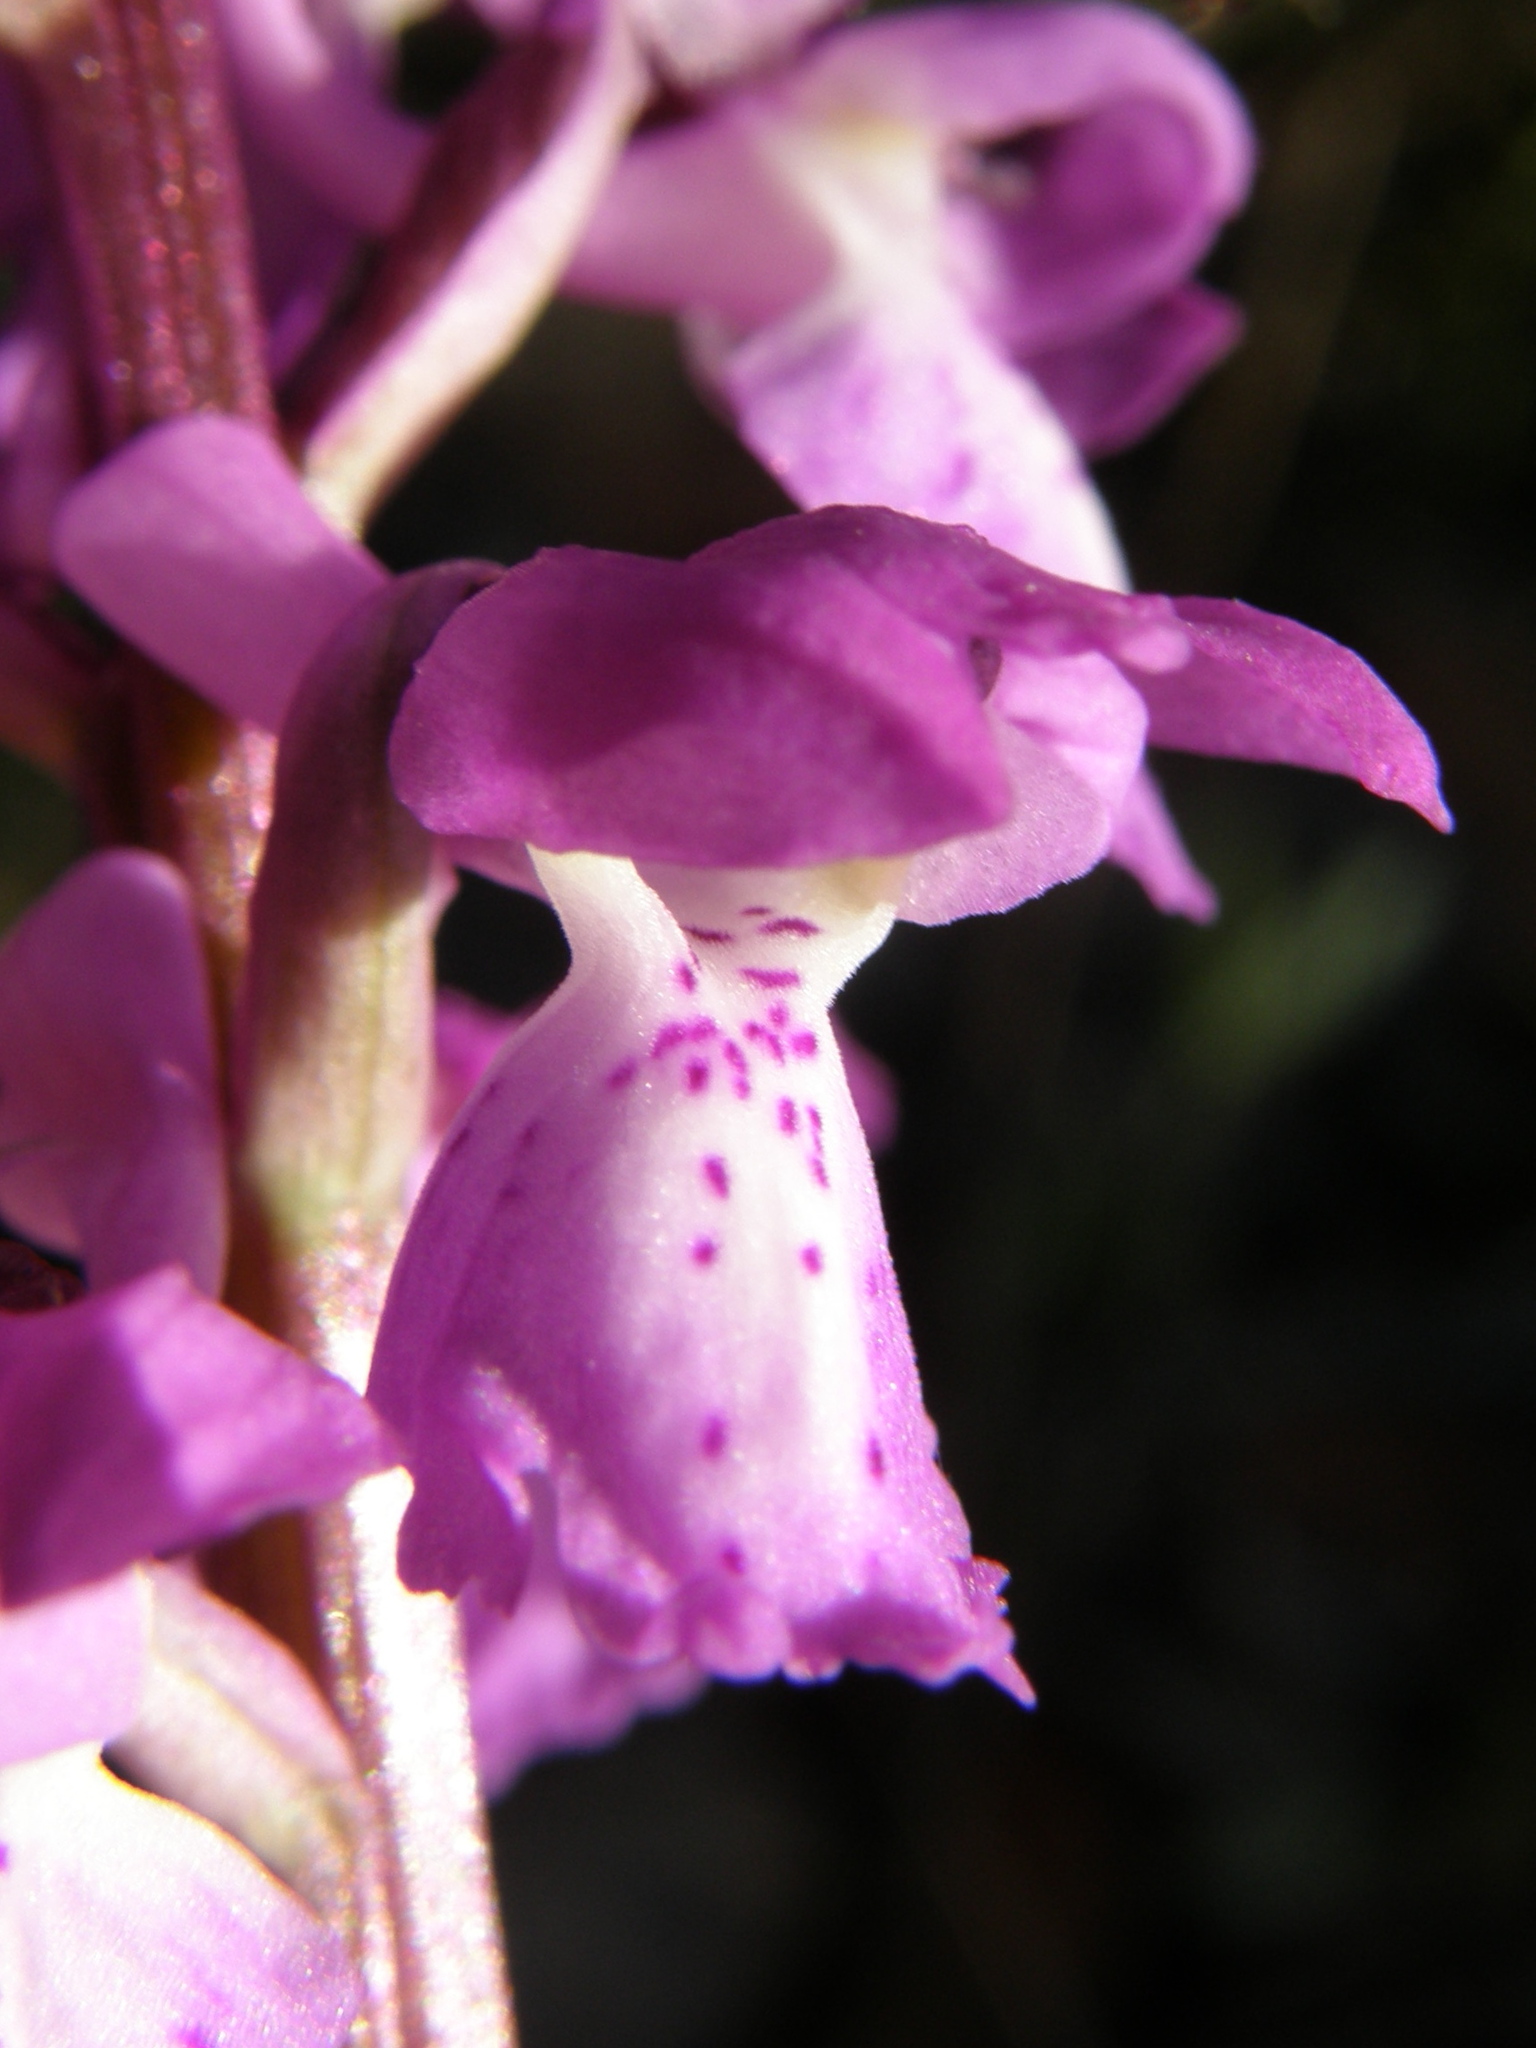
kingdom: Plantae
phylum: Tracheophyta
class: Liliopsida
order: Asparagales
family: Orchidaceae
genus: Orchis
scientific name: Orchis mascula
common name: Early-purple orchid
